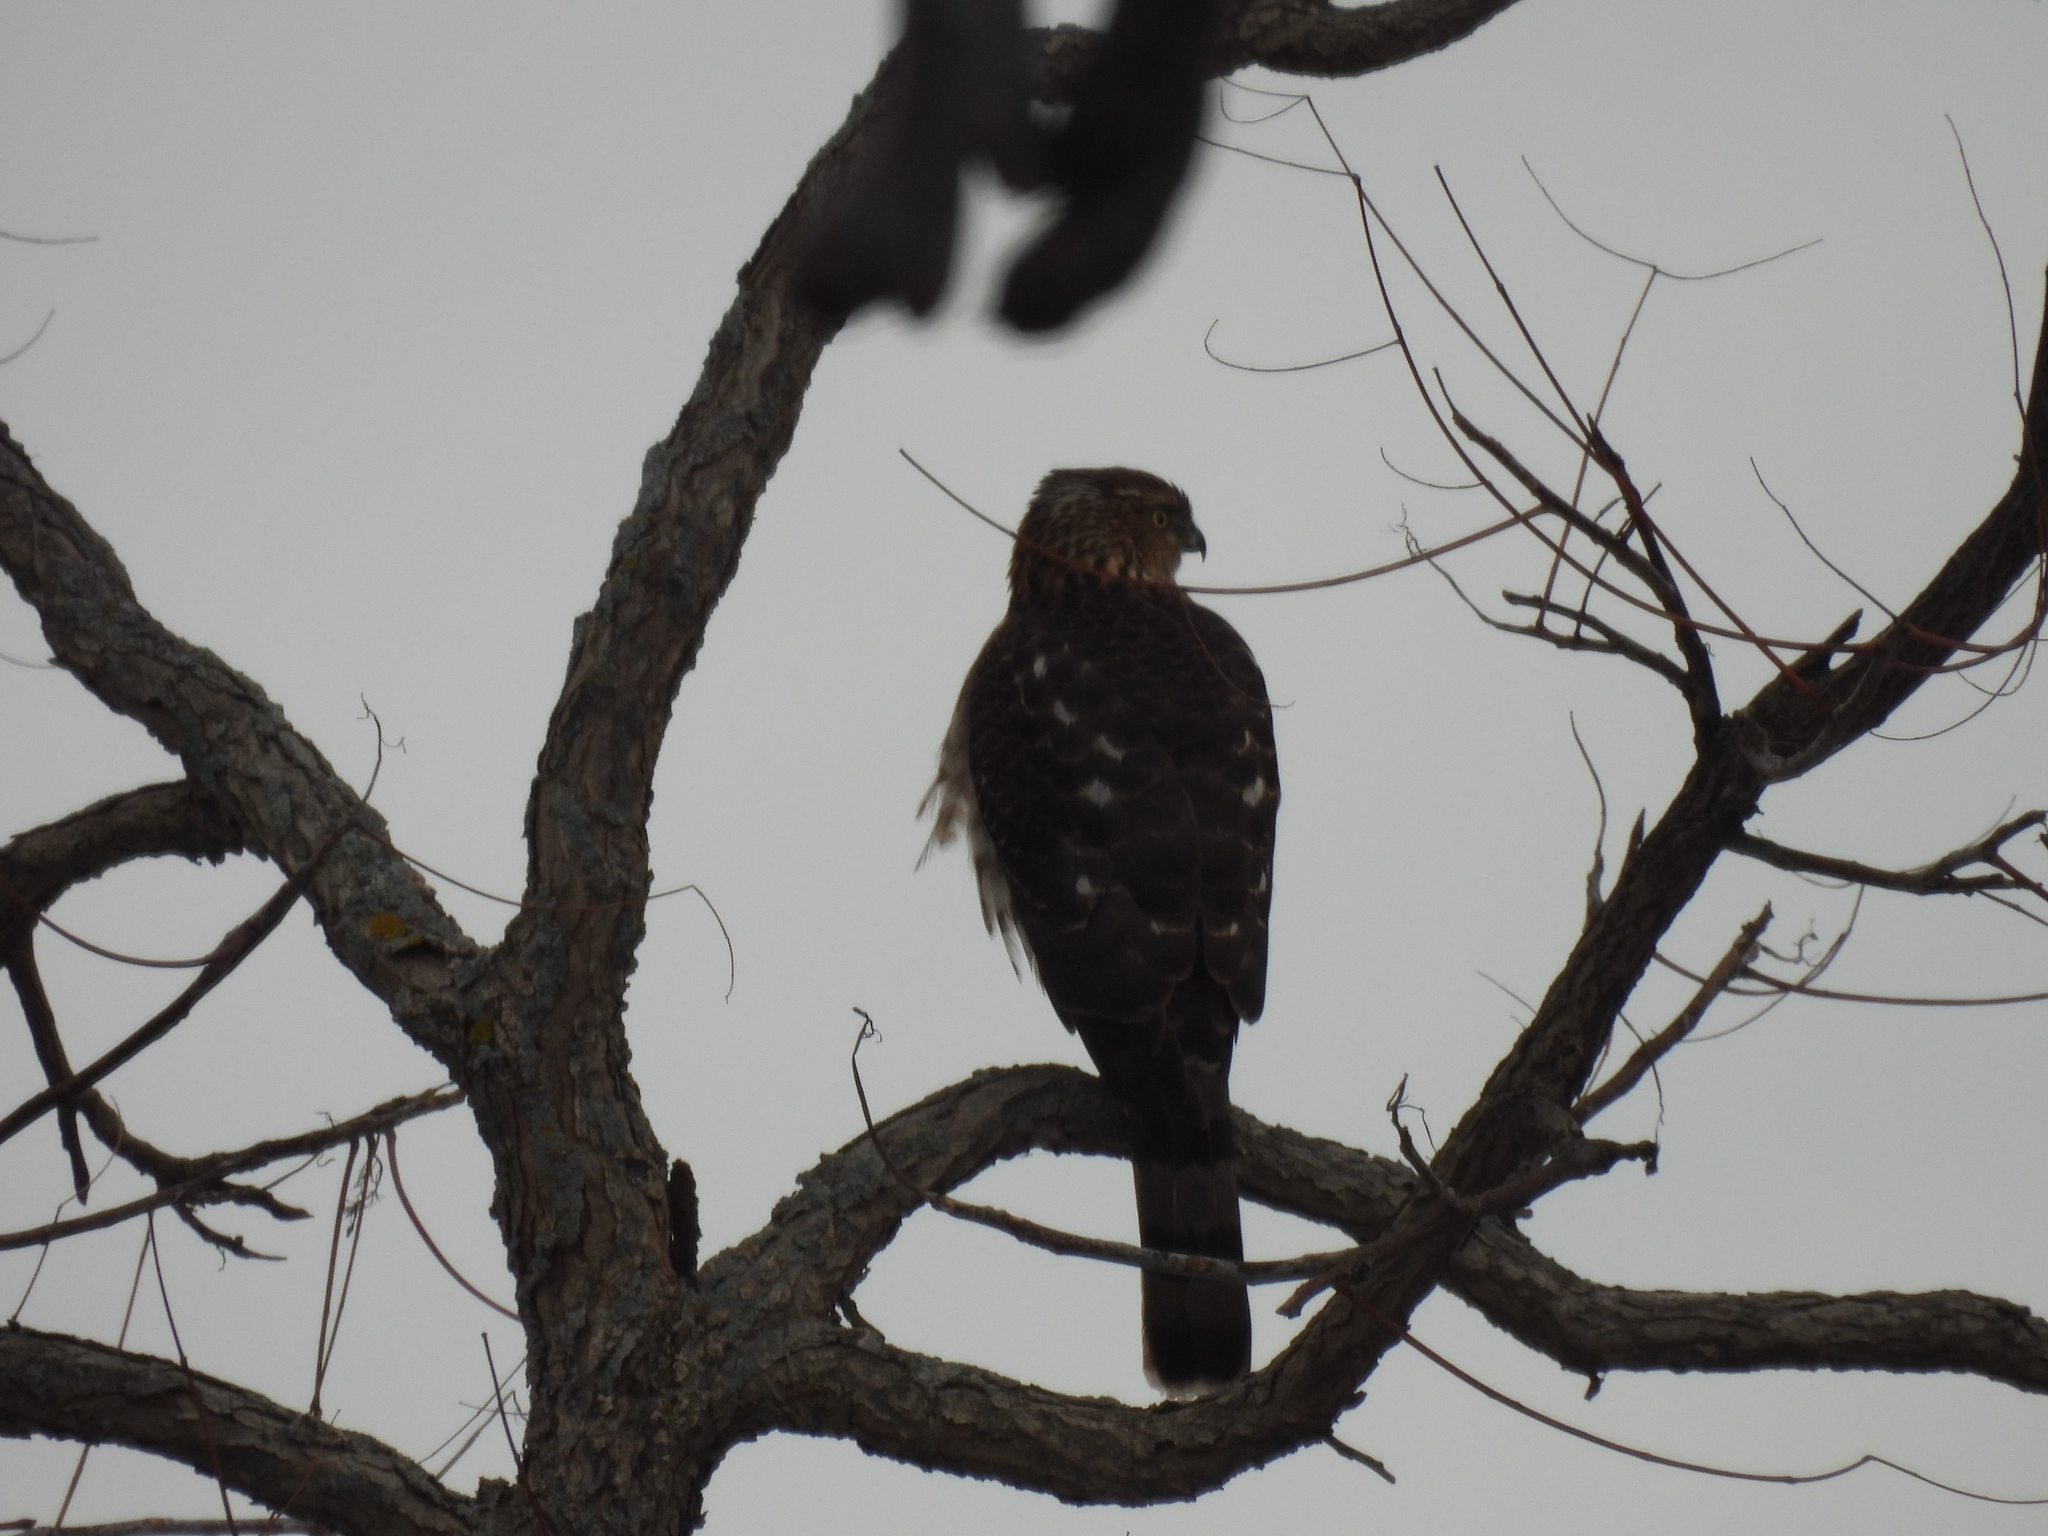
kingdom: Animalia
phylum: Chordata
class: Aves
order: Accipitriformes
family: Accipitridae
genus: Accipiter
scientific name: Accipiter cooperii
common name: Cooper's hawk
